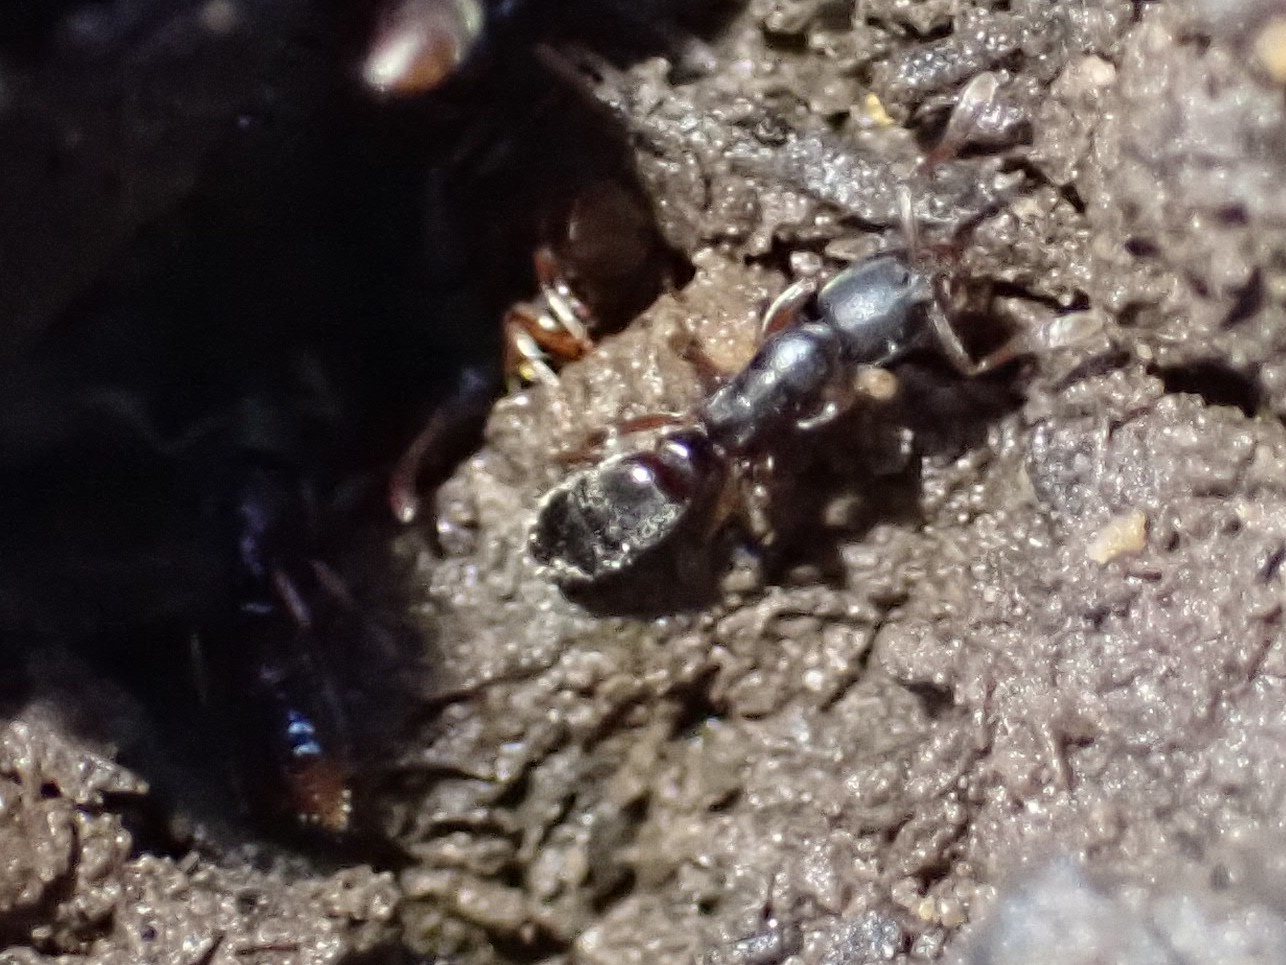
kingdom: Animalia
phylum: Arthropoda
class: Insecta
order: Hymenoptera
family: Formicidae
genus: Ponera
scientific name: Ponera pennsylvanica
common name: Pennsylvania ponera
